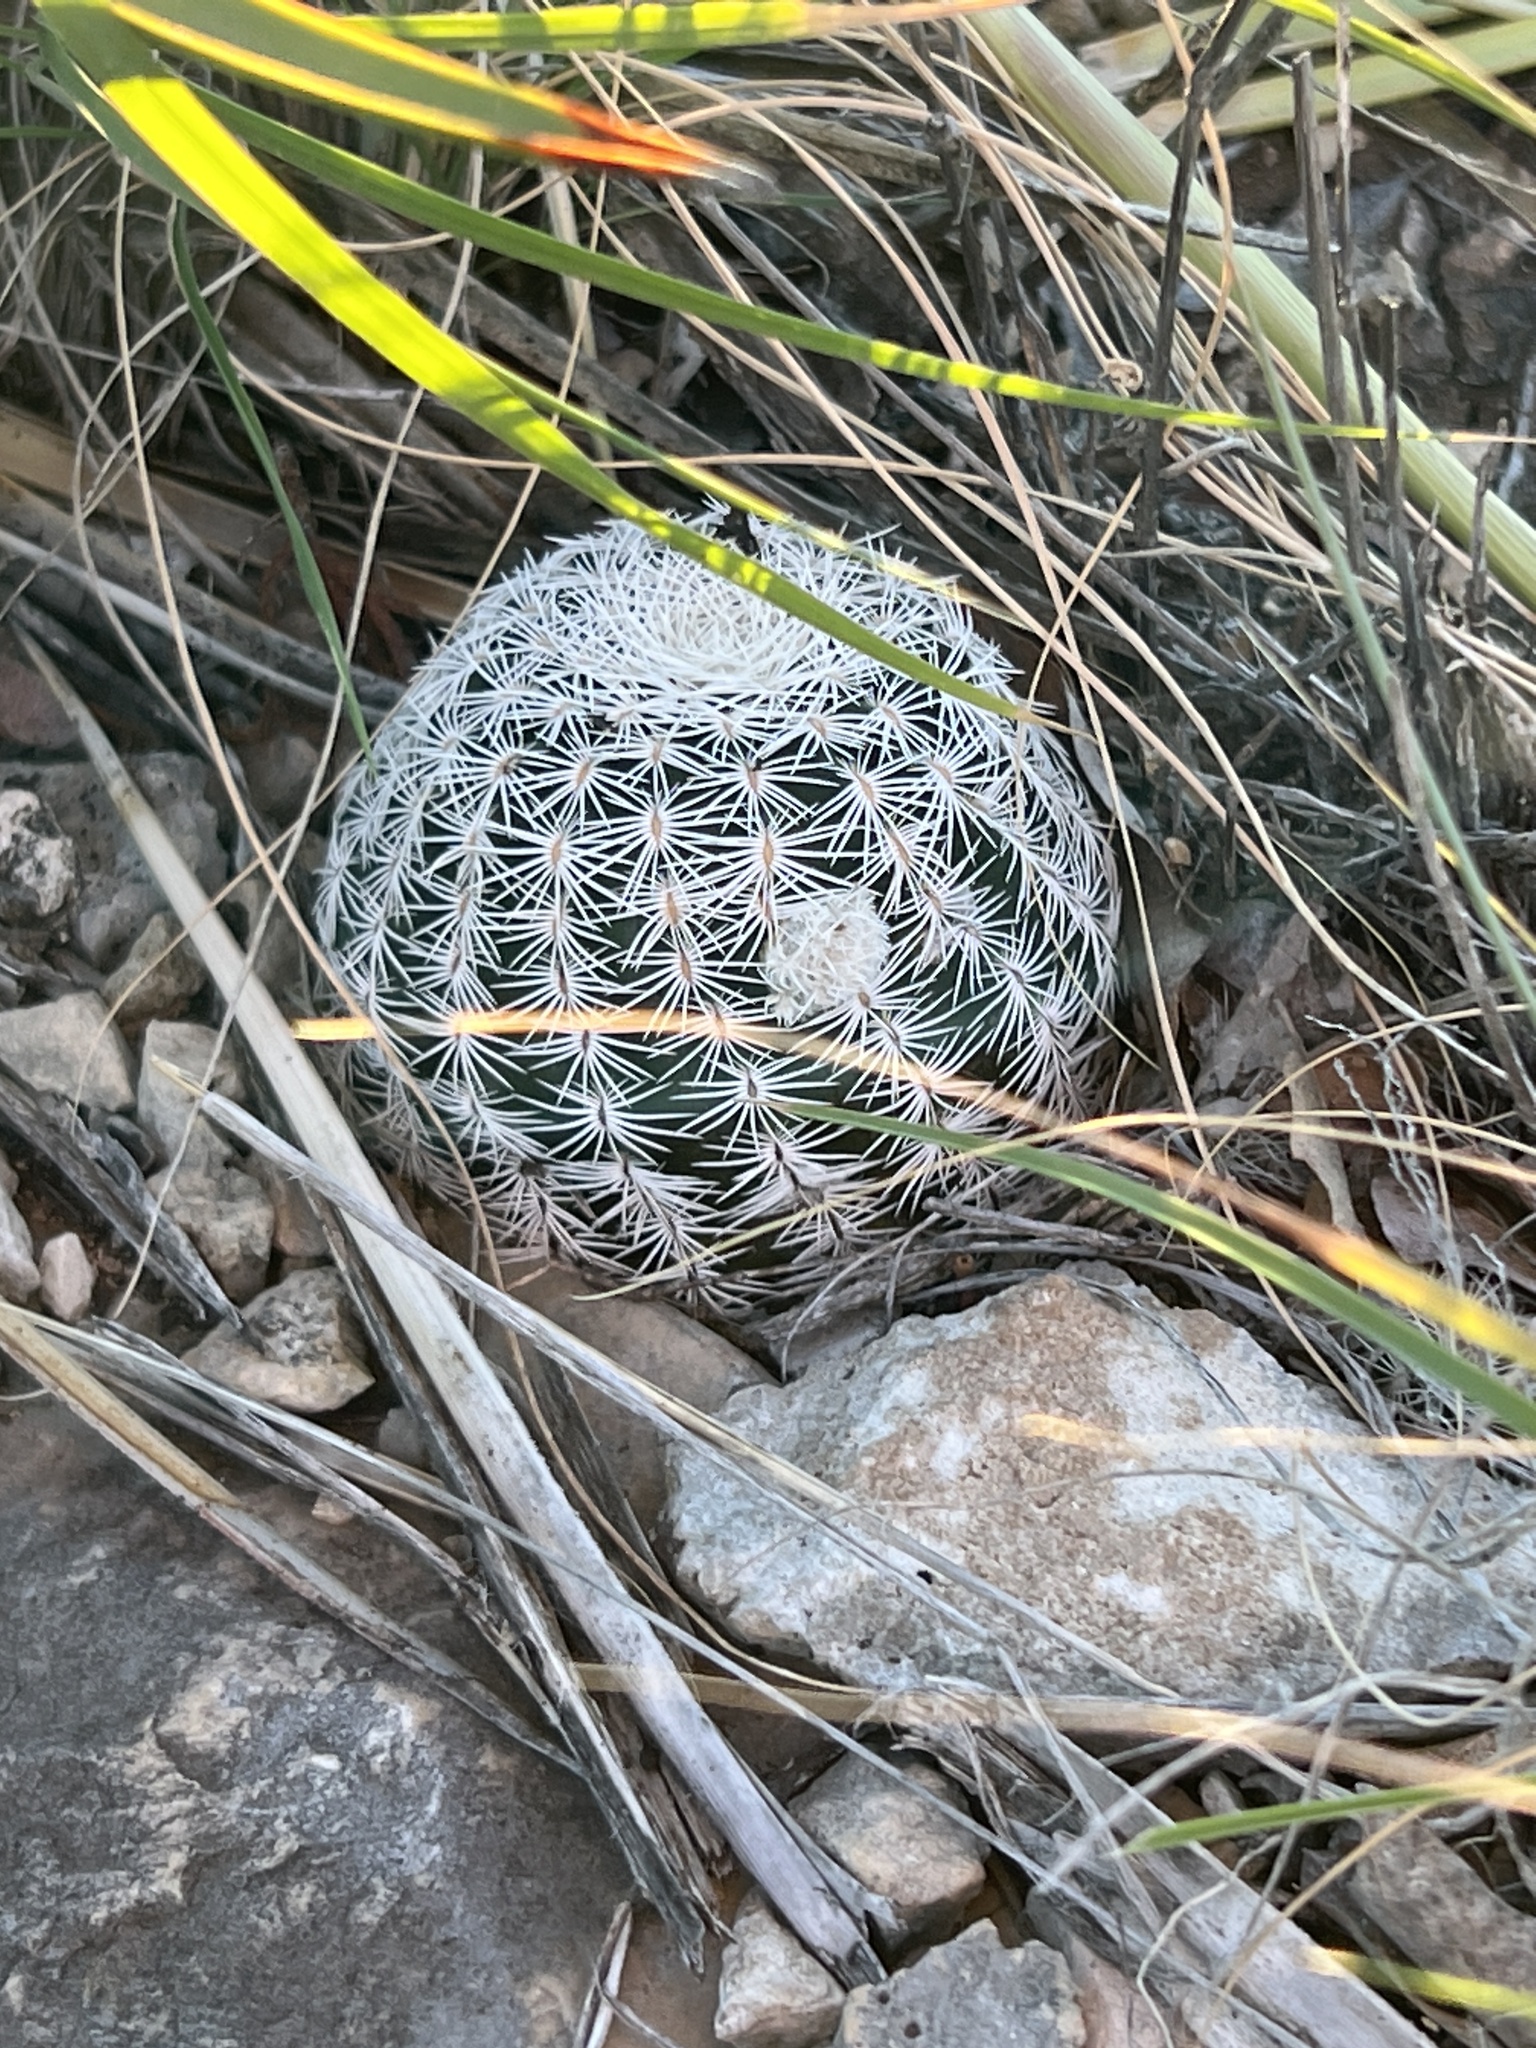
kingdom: Plantae
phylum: Tracheophyta
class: Magnoliopsida
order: Caryophyllales
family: Cactaceae
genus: Echinocereus
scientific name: Echinocereus reichenbachii
